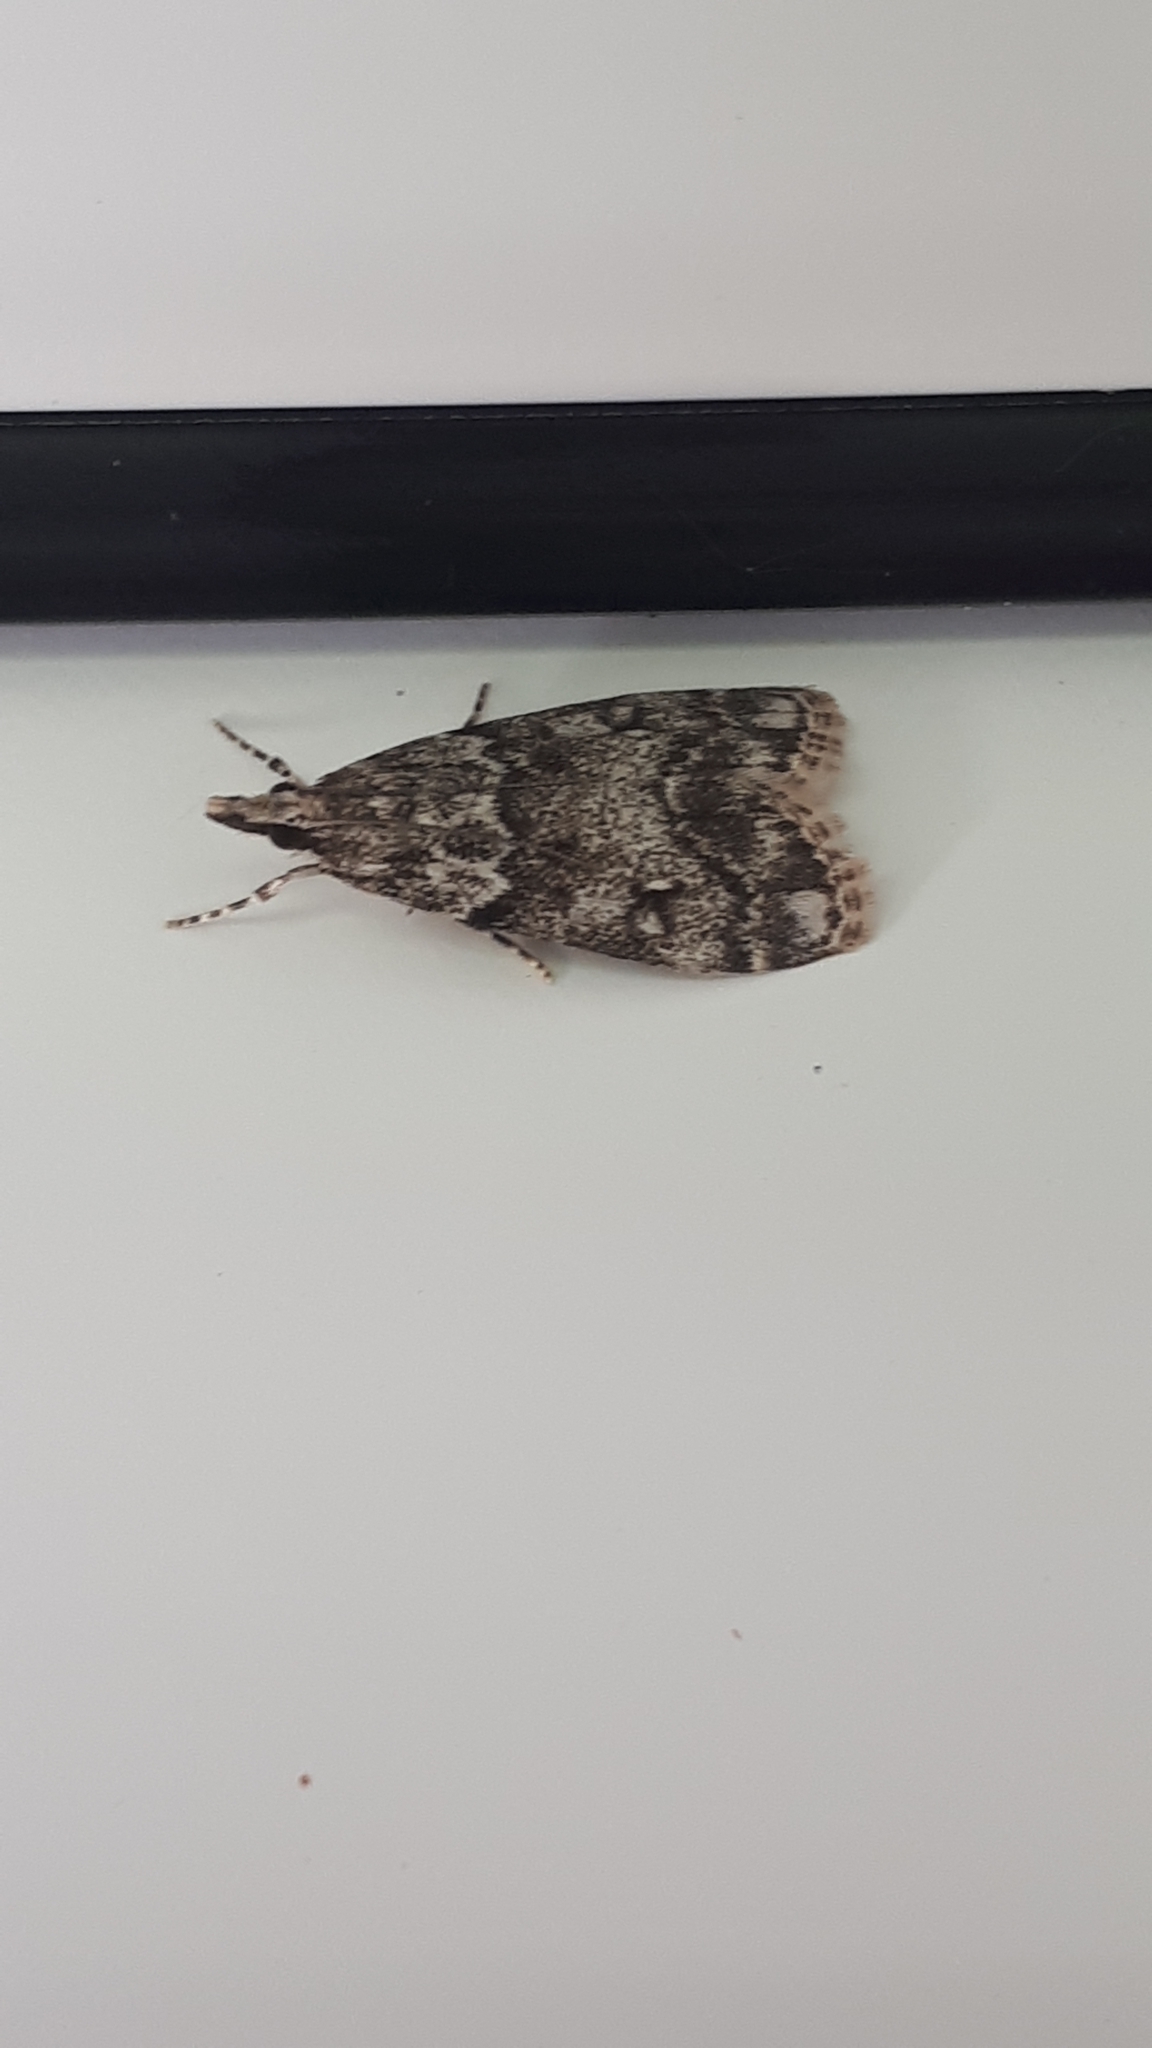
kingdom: Animalia
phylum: Arthropoda
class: Insecta
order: Lepidoptera
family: Crambidae
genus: Eudonia
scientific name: Eudonia lacustrata
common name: Little grey
